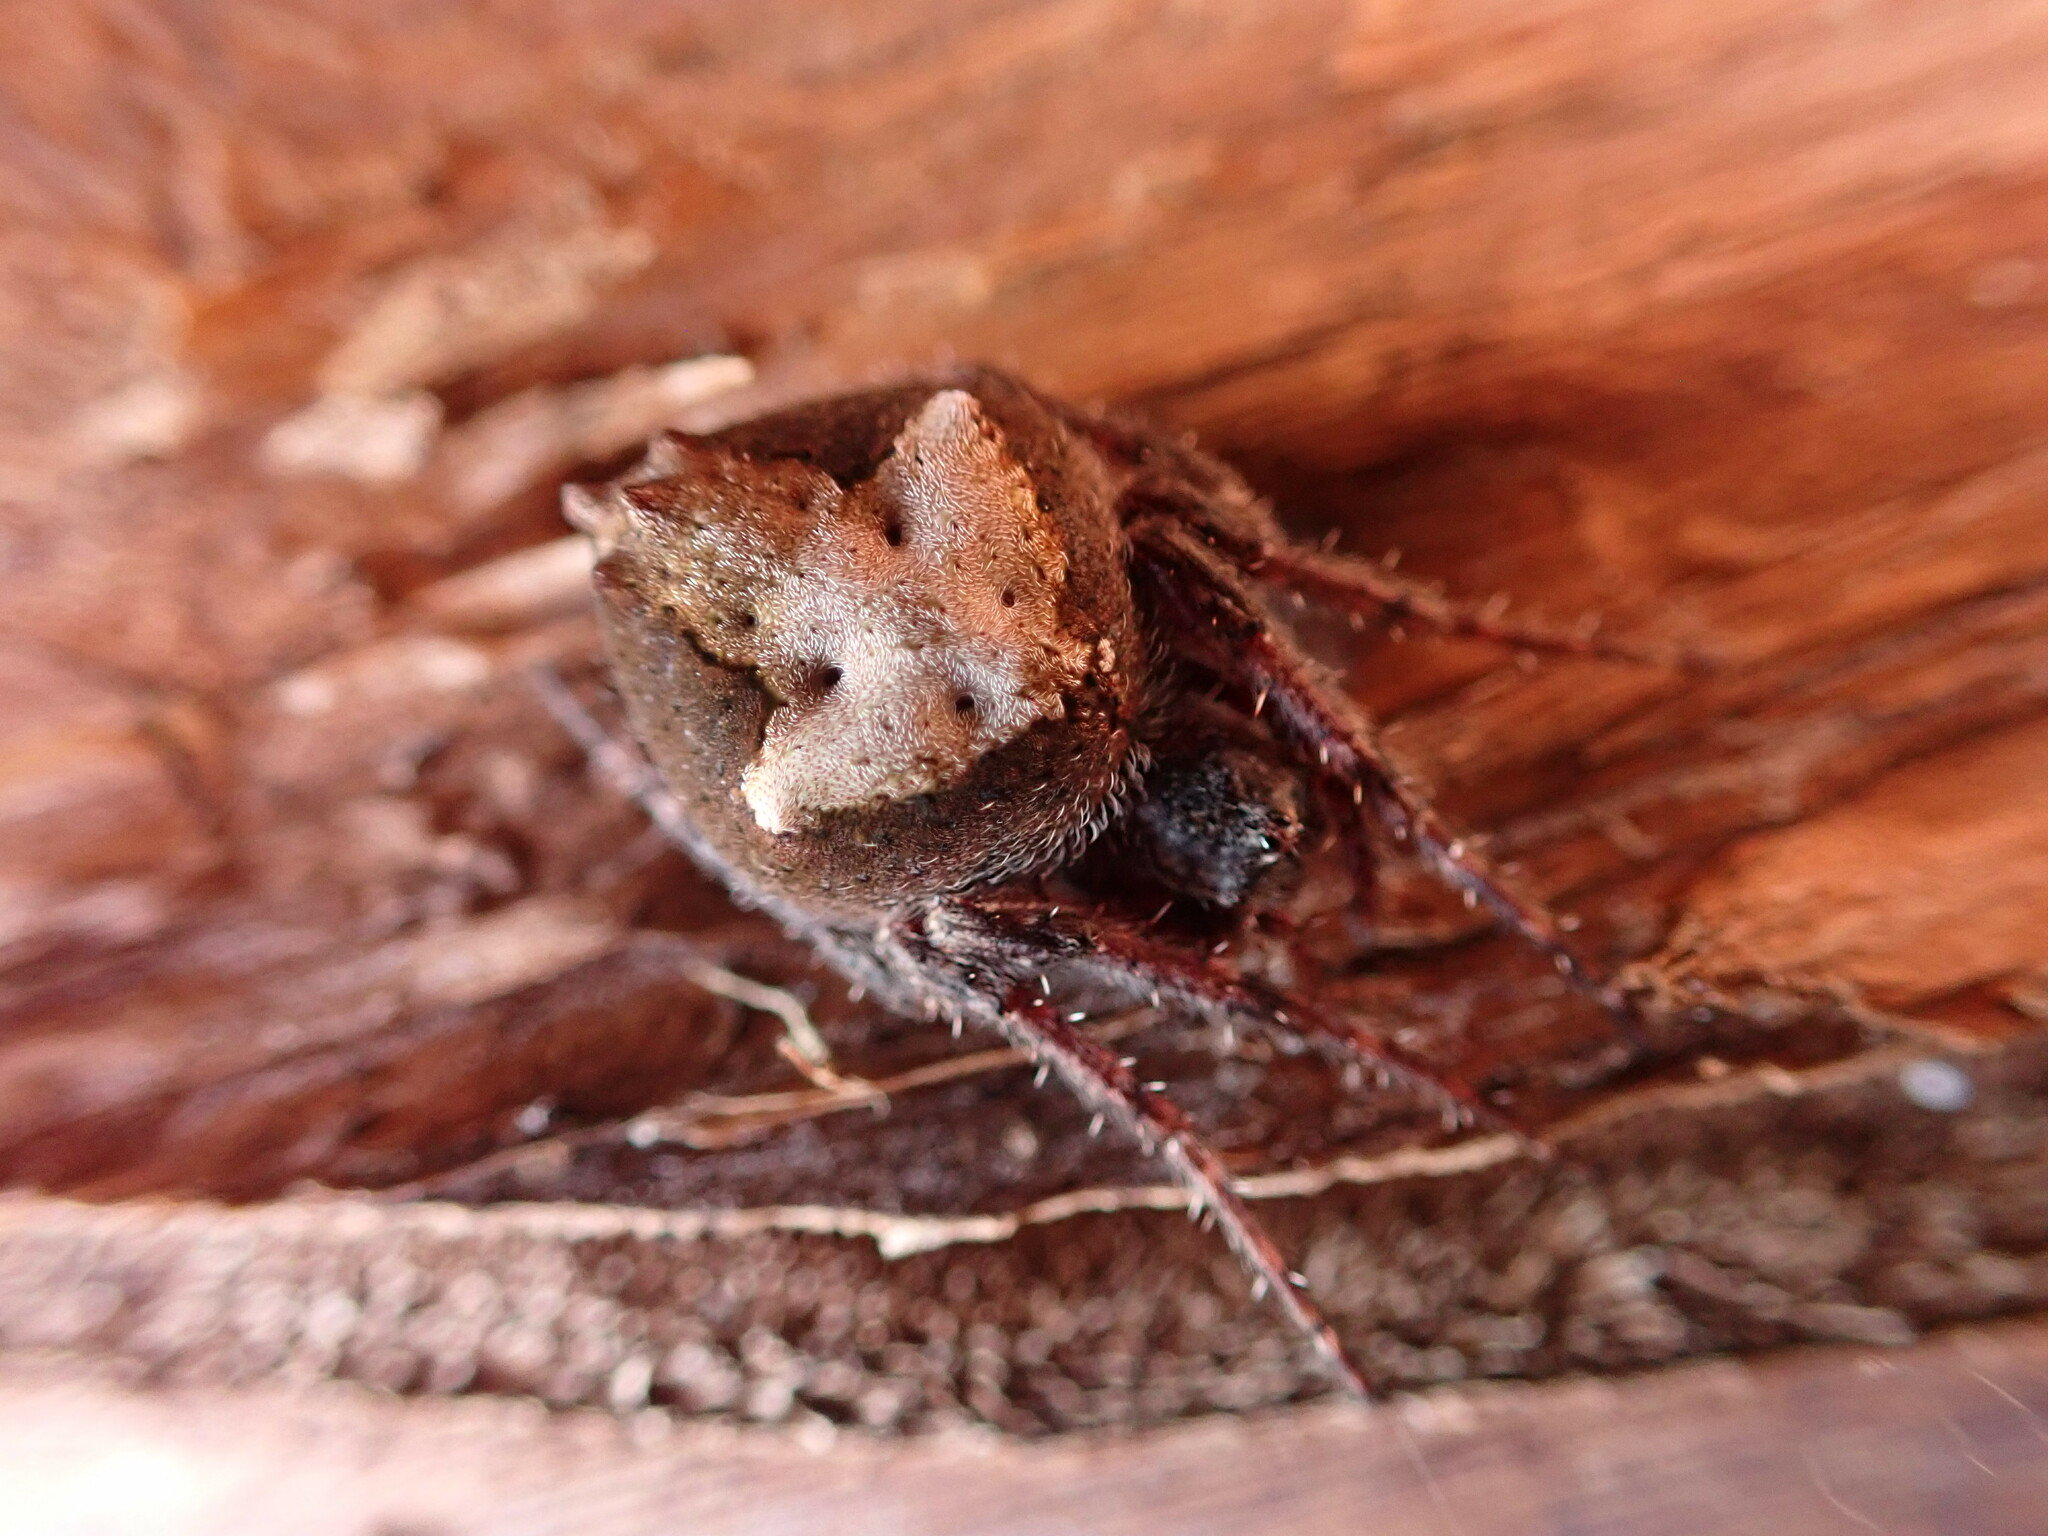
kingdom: Animalia
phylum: Arthropoda
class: Arachnida
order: Araneae
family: Araneidae
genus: Eriophora
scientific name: Eriophora pustulosa
